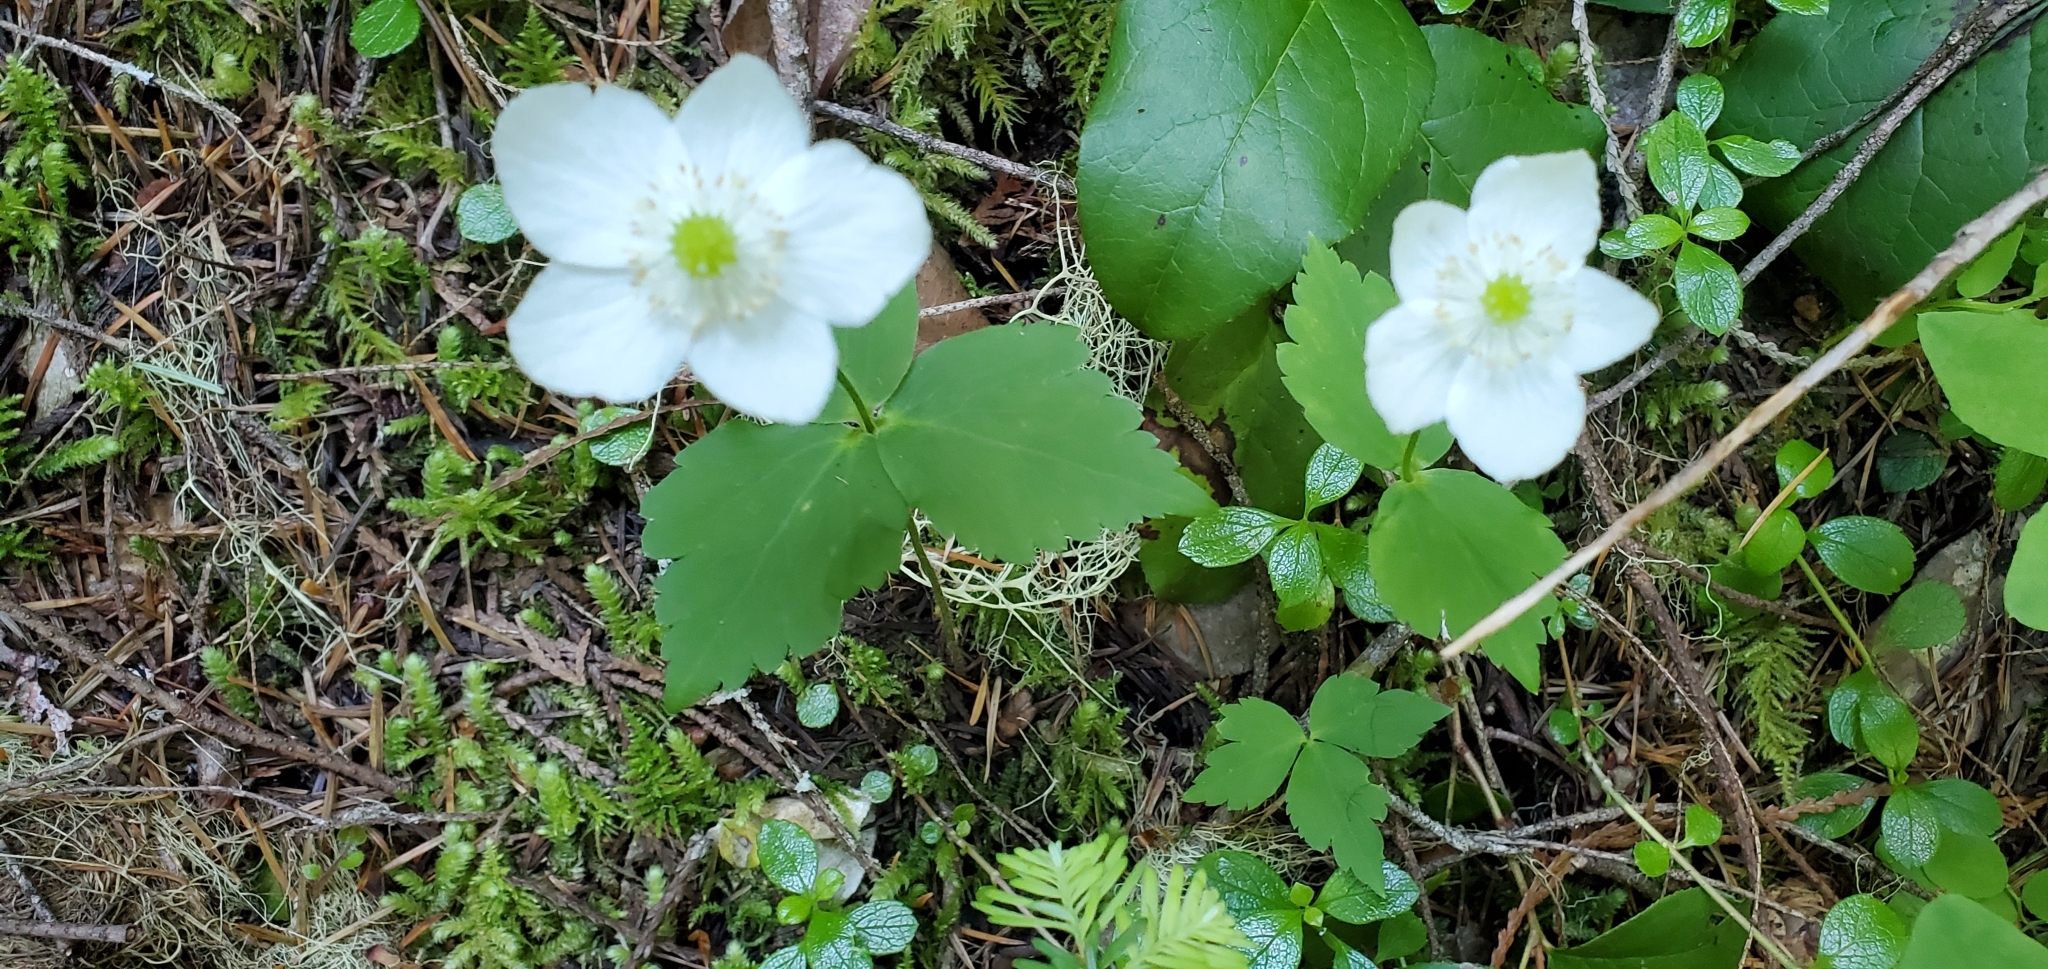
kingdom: Plantae
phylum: Tracheophyta
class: Magnoliopsida
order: Ranunculales
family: Ranunculaceae
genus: Anemonastrum
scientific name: Anemonastrum deltoideum
